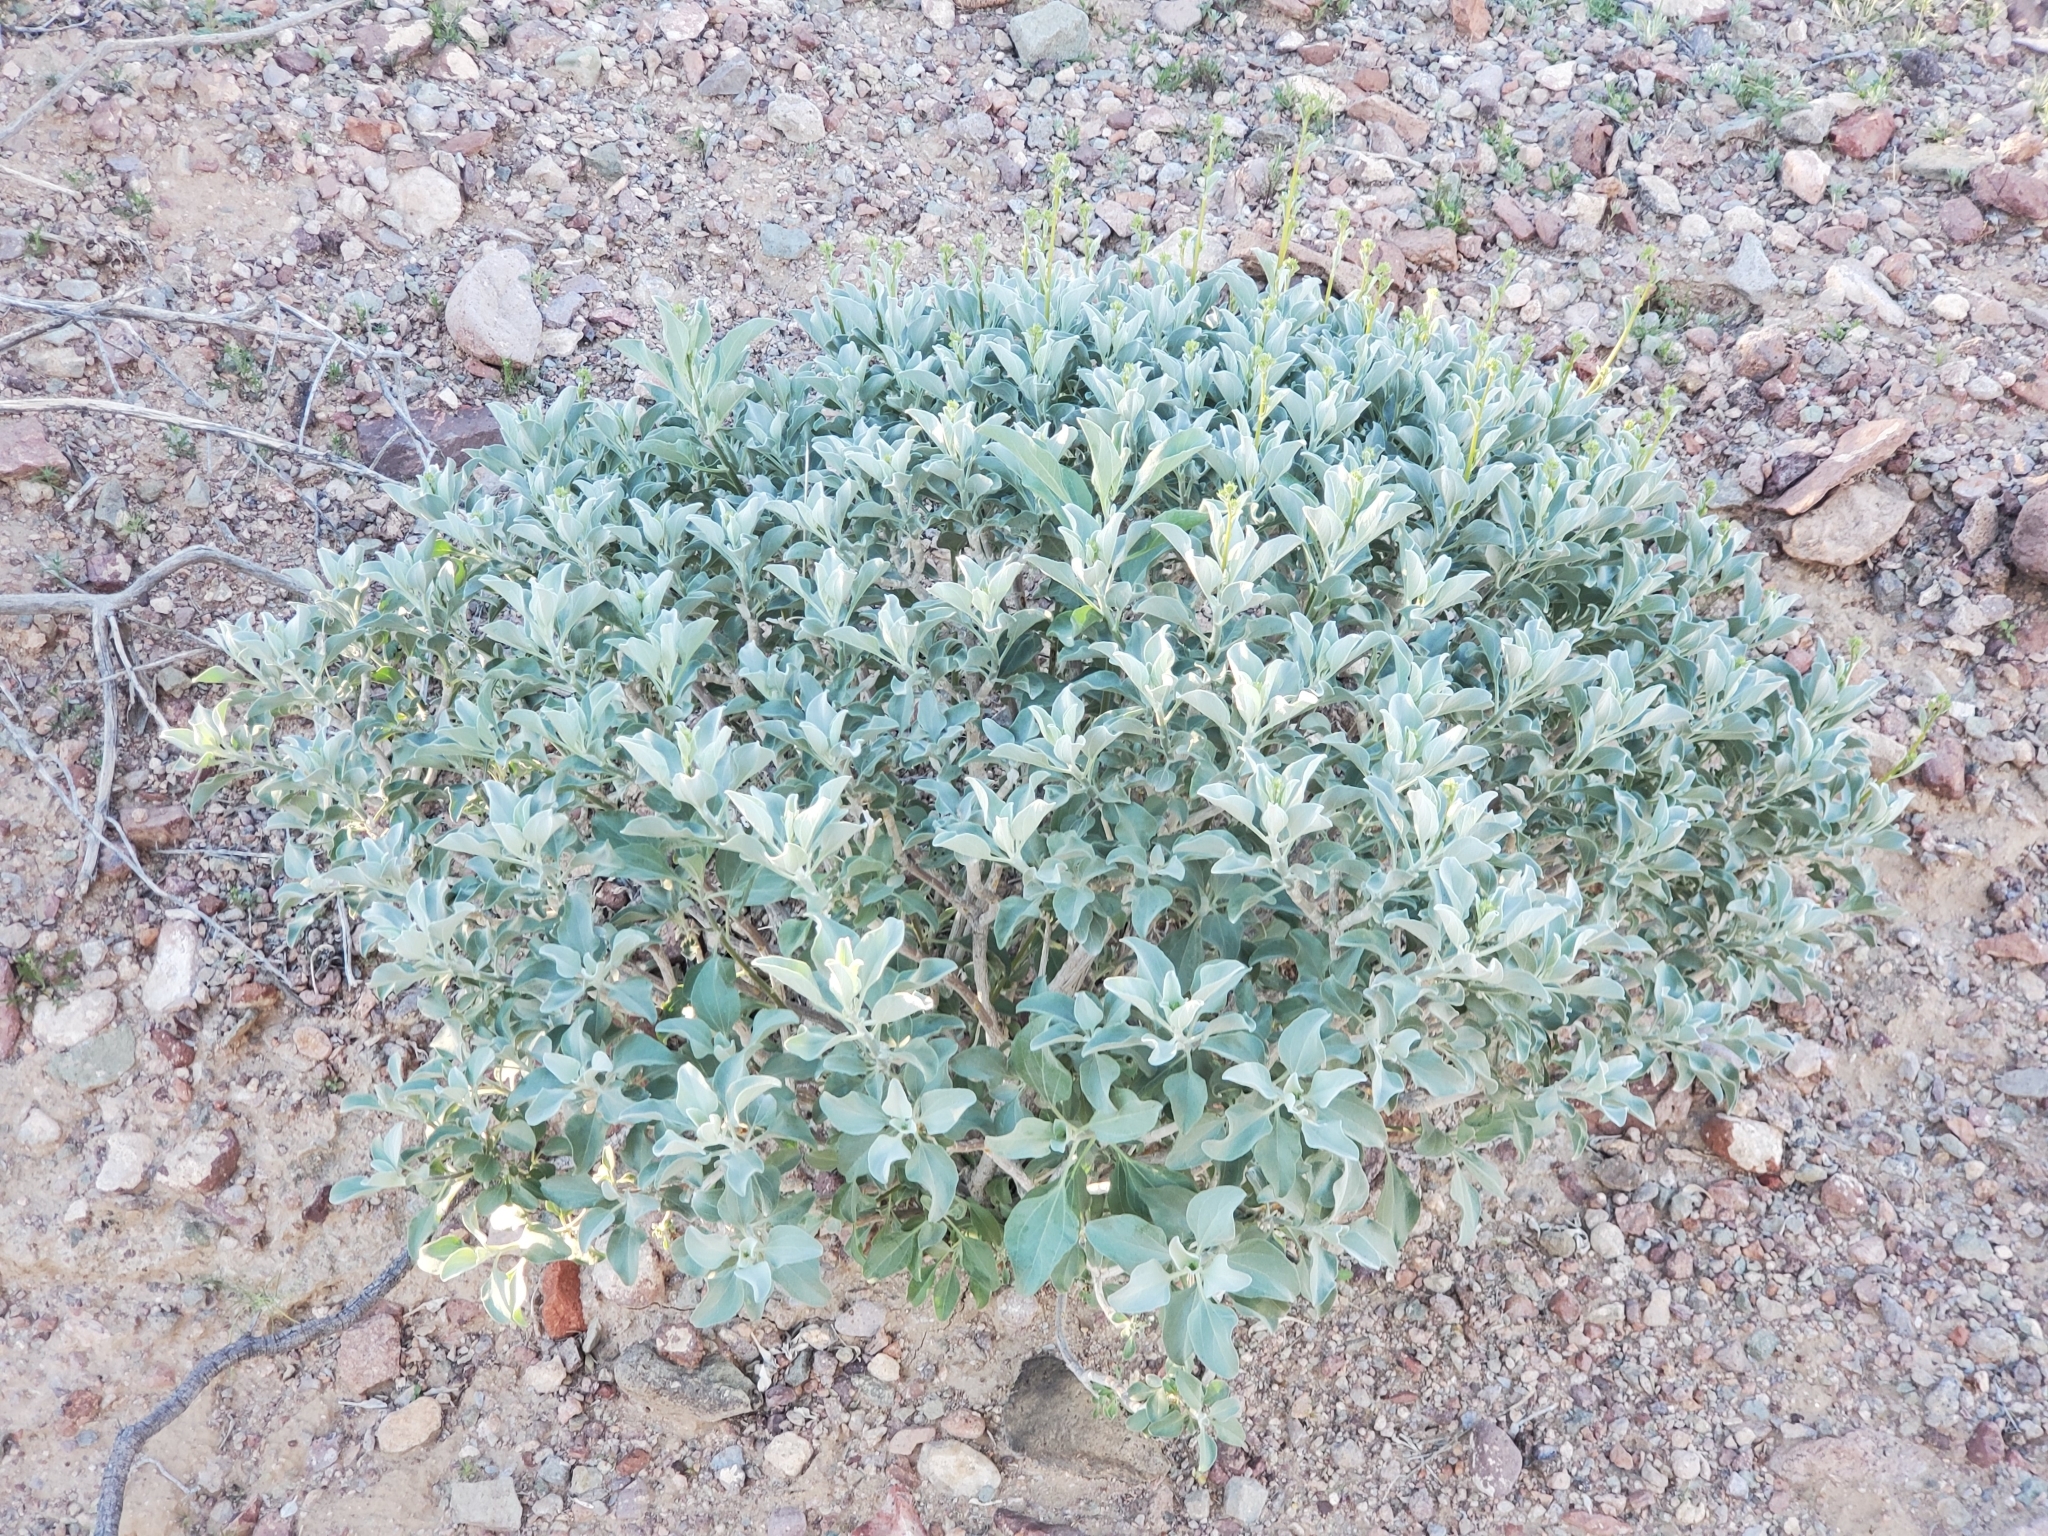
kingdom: Plantae
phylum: Tracheophyta
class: Magnoliopsida
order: Asterales
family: Asteraceae
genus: Encelia
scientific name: Encelia farinosa
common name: Brittlebush
